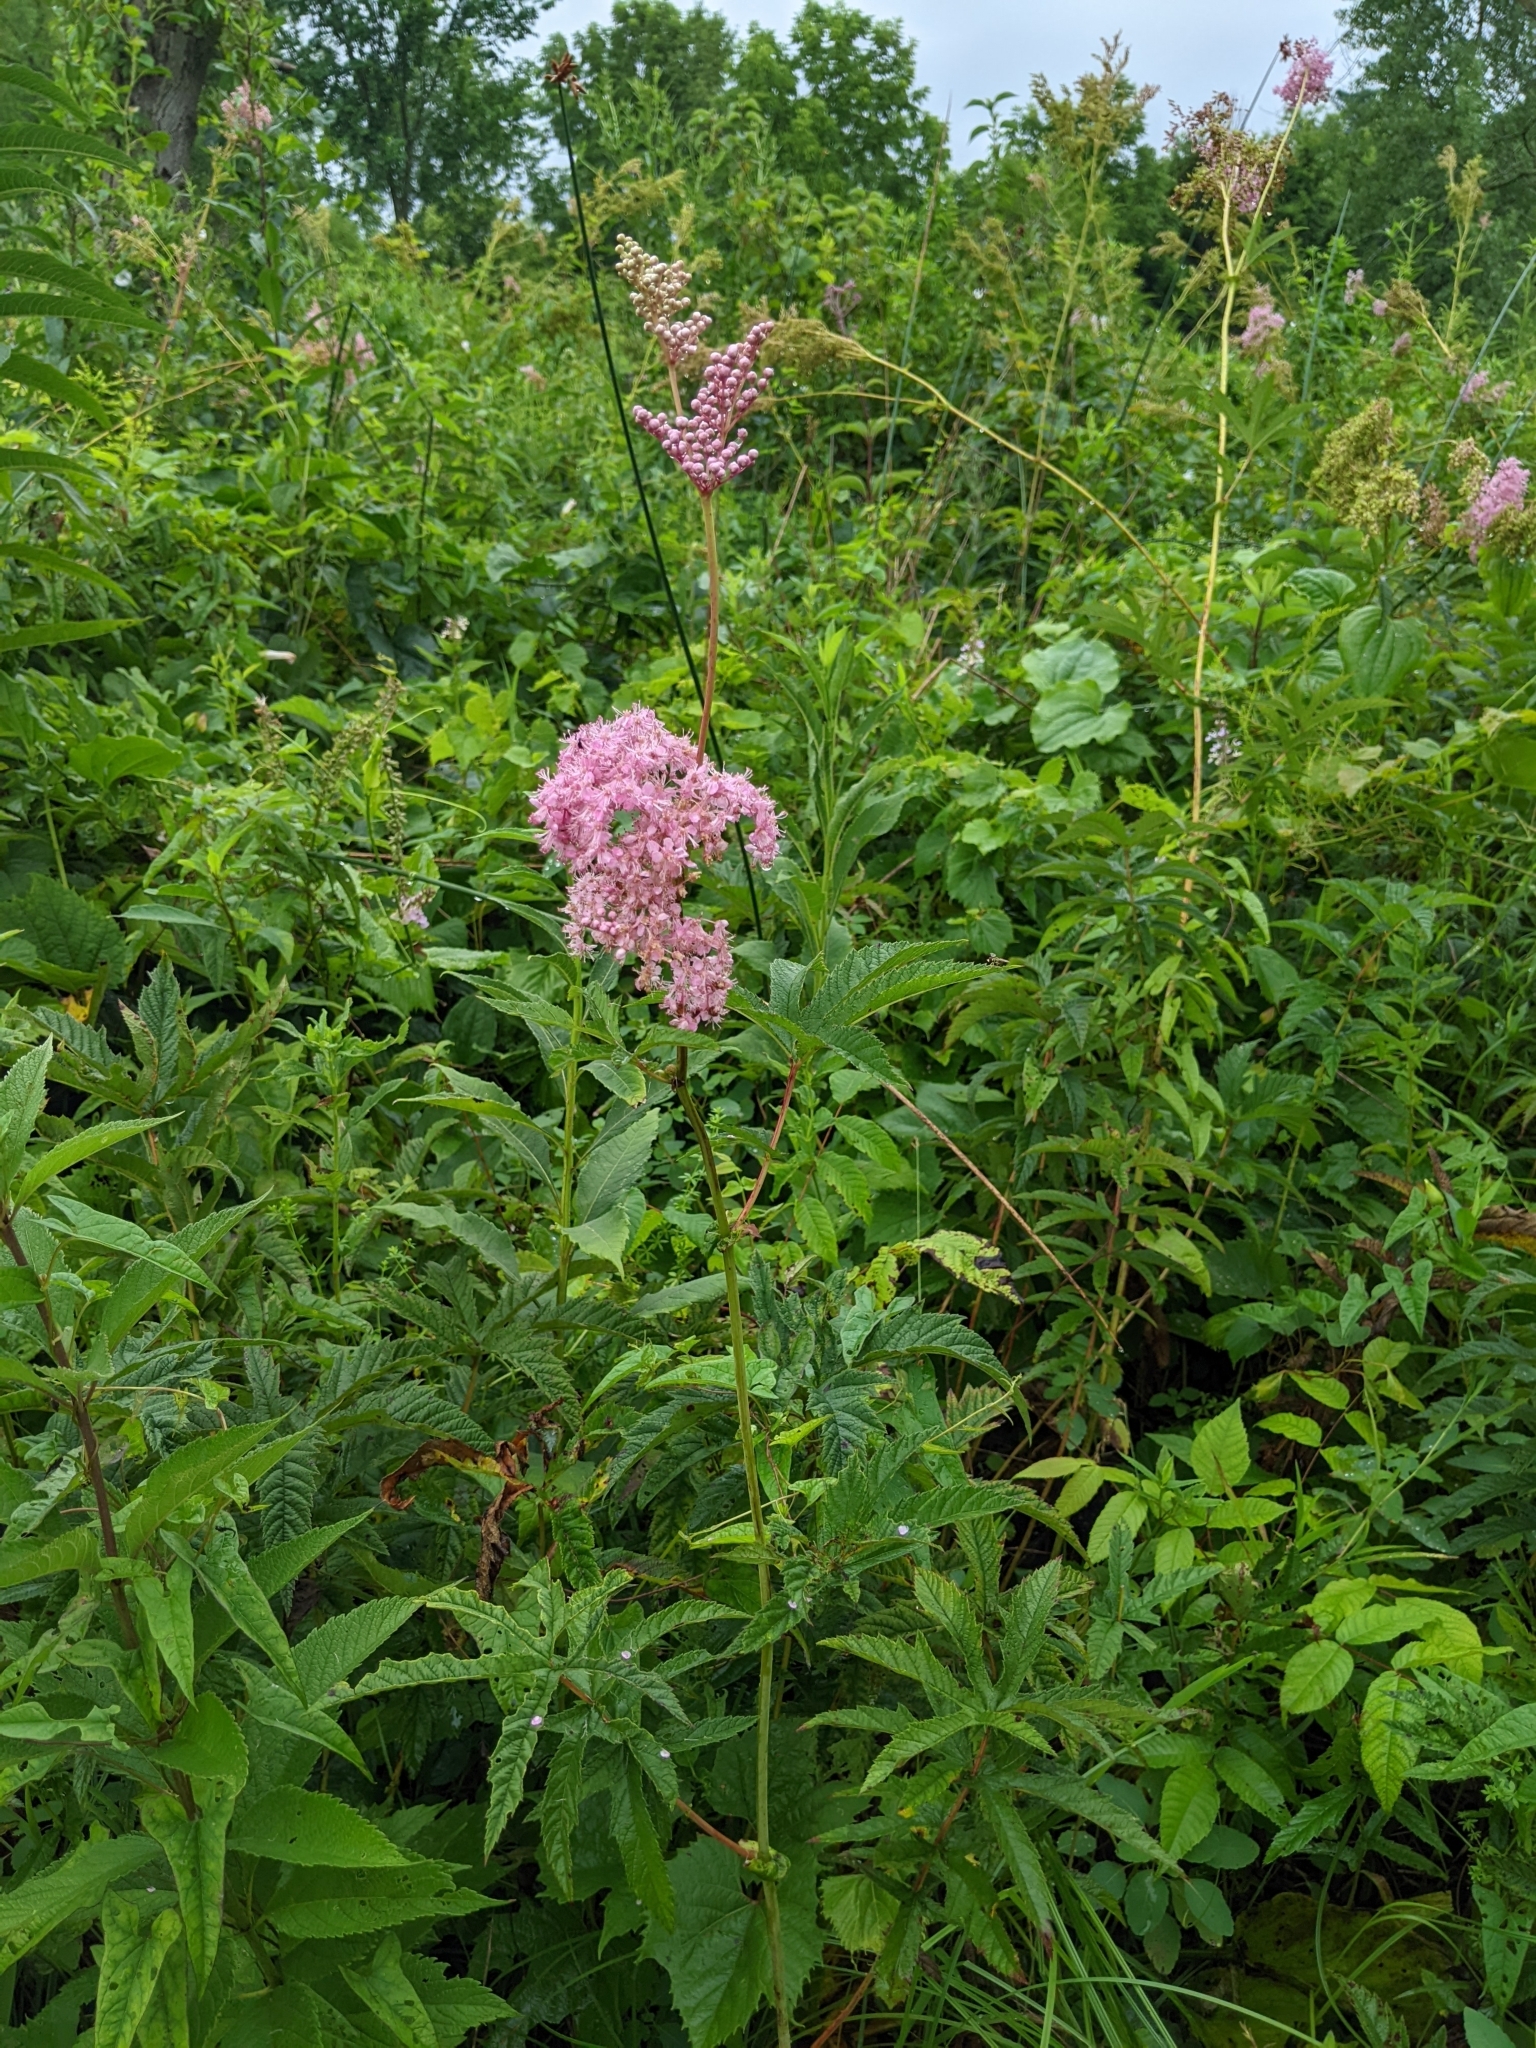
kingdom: Plantae
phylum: Tracheophyta
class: Magnoliopsida
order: Rosales
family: Rosaceae
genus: Filipendula
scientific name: Filipendula rubra
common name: Queen-of-the-prairie
